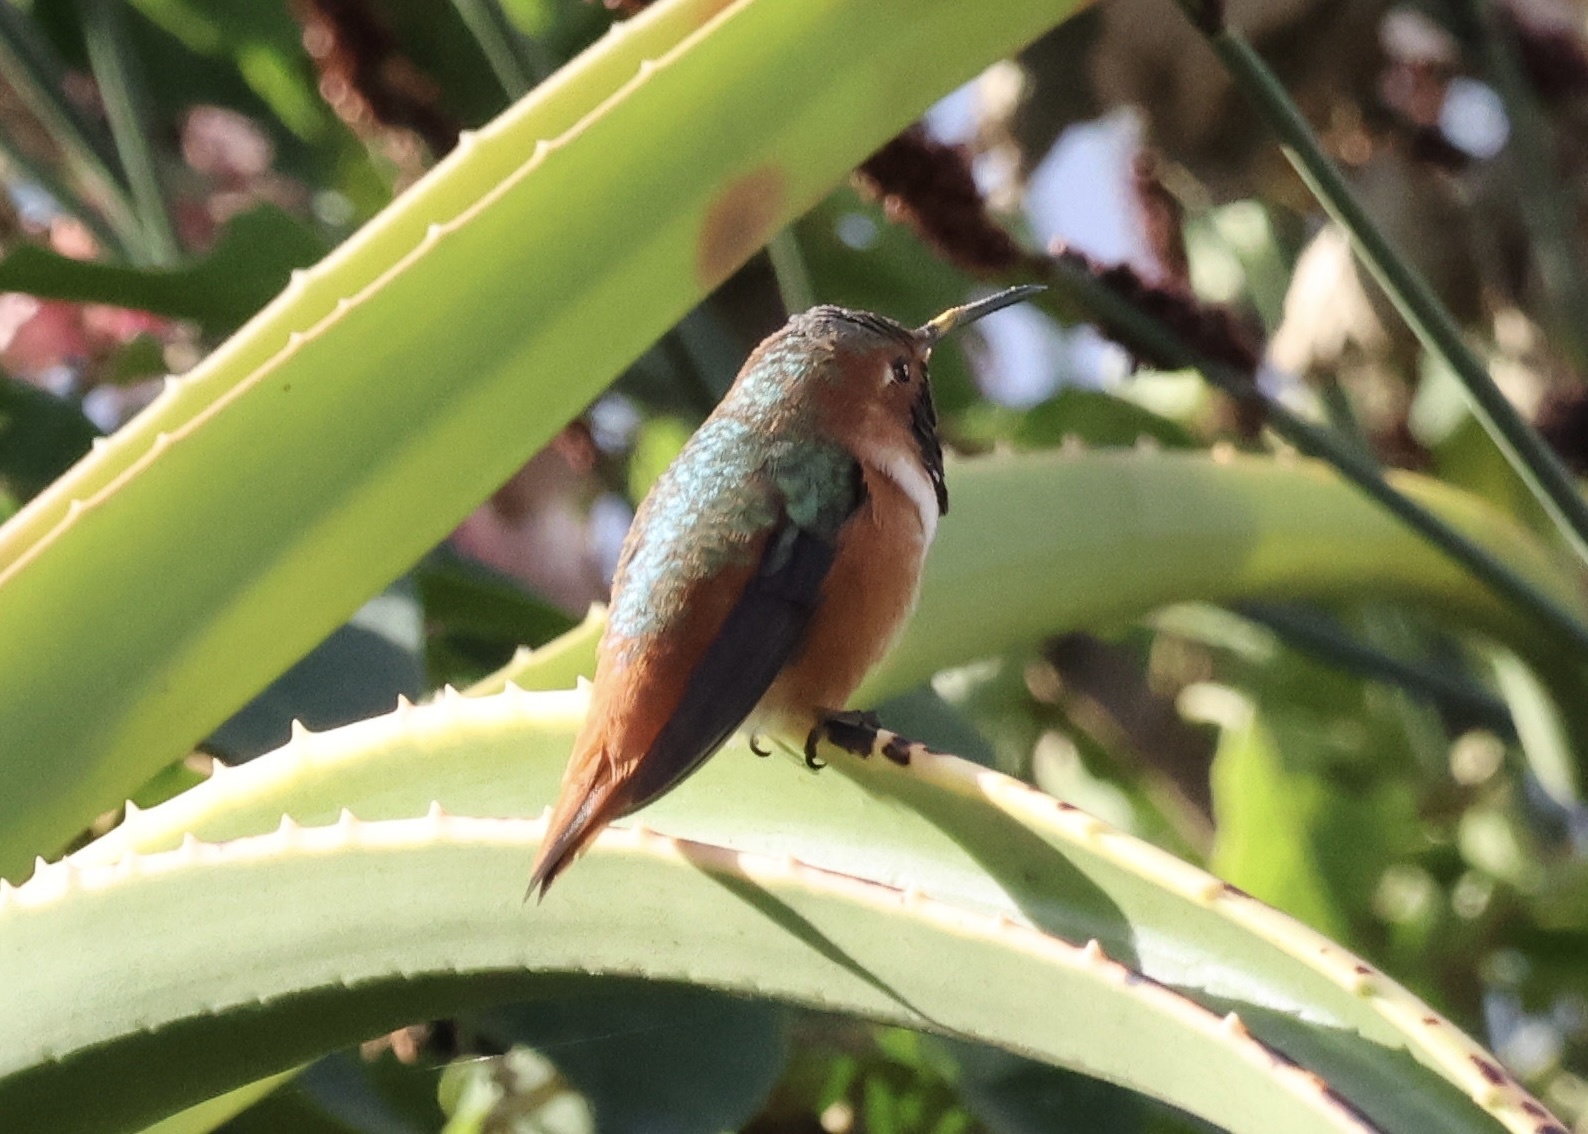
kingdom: Animalia
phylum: Chordata
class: Aves
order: Apodiformes
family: Trochilidae
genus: Selasphorus
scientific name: Selasphorus sasin
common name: Allen's hummingbird
